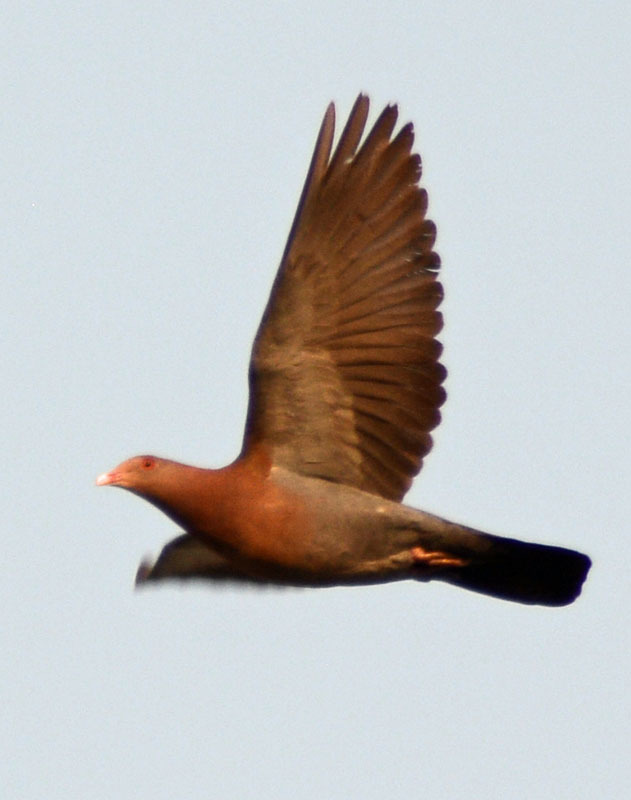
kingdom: Animalia
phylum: Chordata
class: Aves
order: Columbiformes
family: Columbidae
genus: Patagioenas
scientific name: Patagioenas flavirostris
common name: Red-billed pigeon
